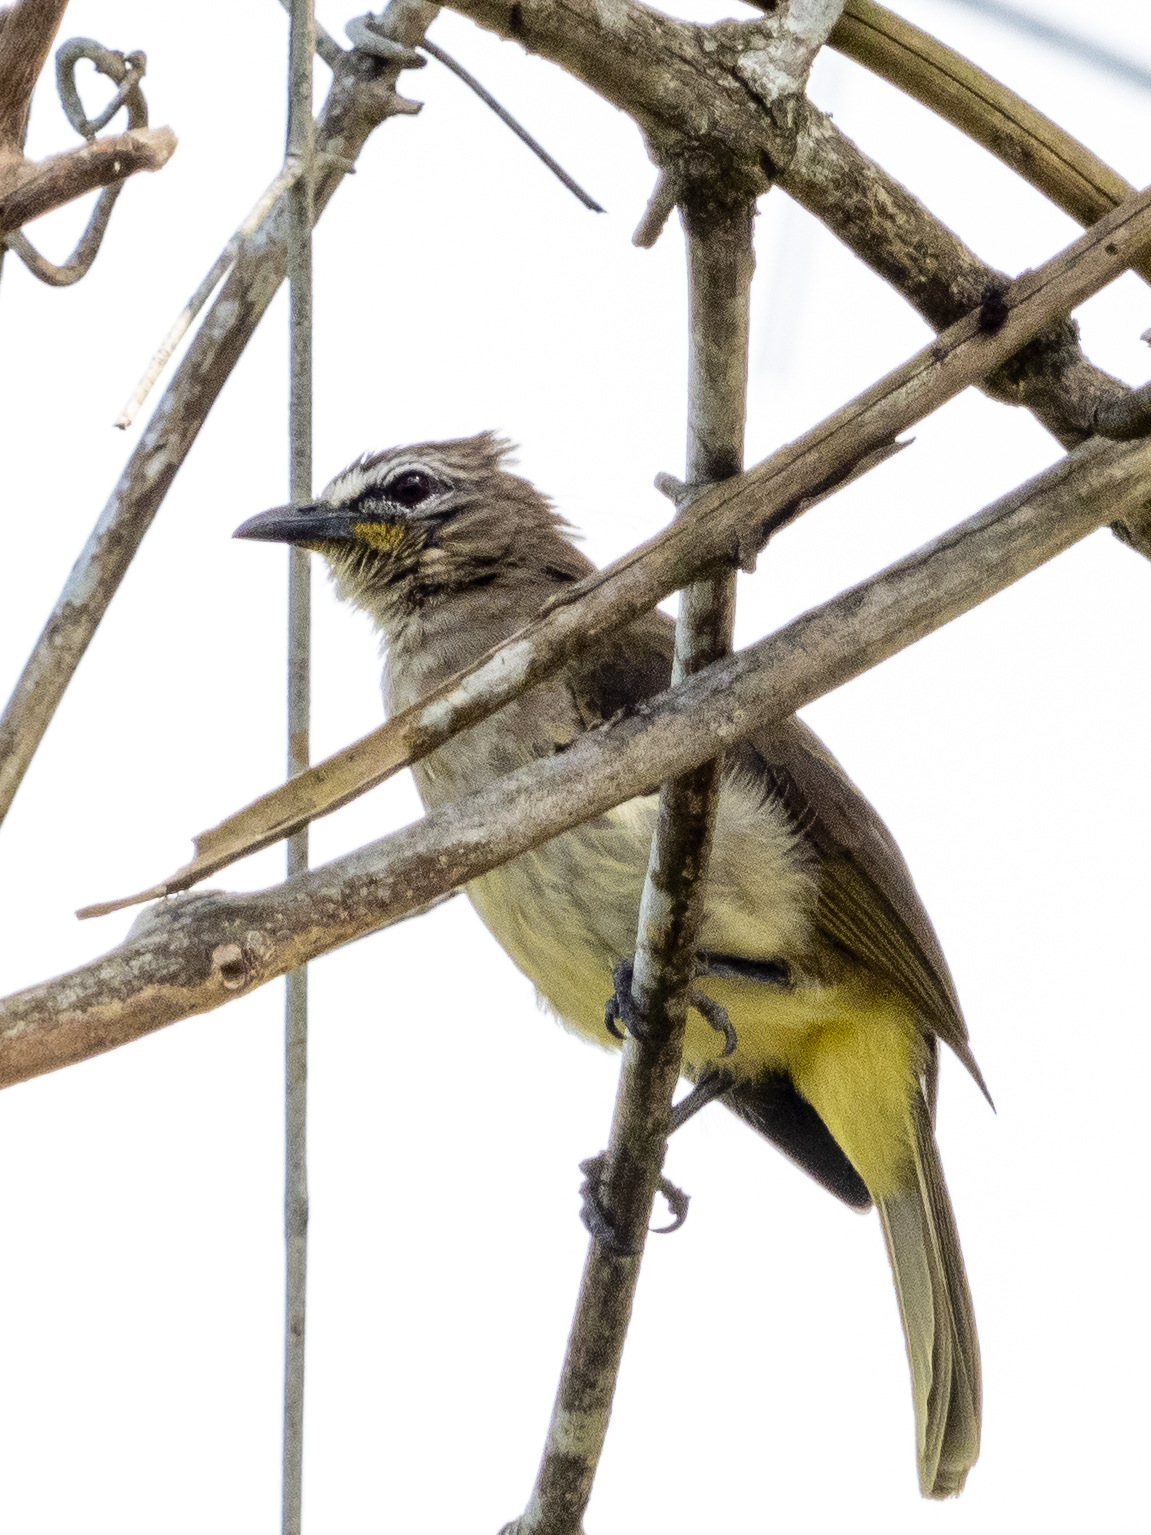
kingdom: Animalia
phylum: Chordata
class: Aves
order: Passeriformes
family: Pycnonotidae
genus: Pycnonotus
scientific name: Pycnonotus luteolus
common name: White-browed bulbul
